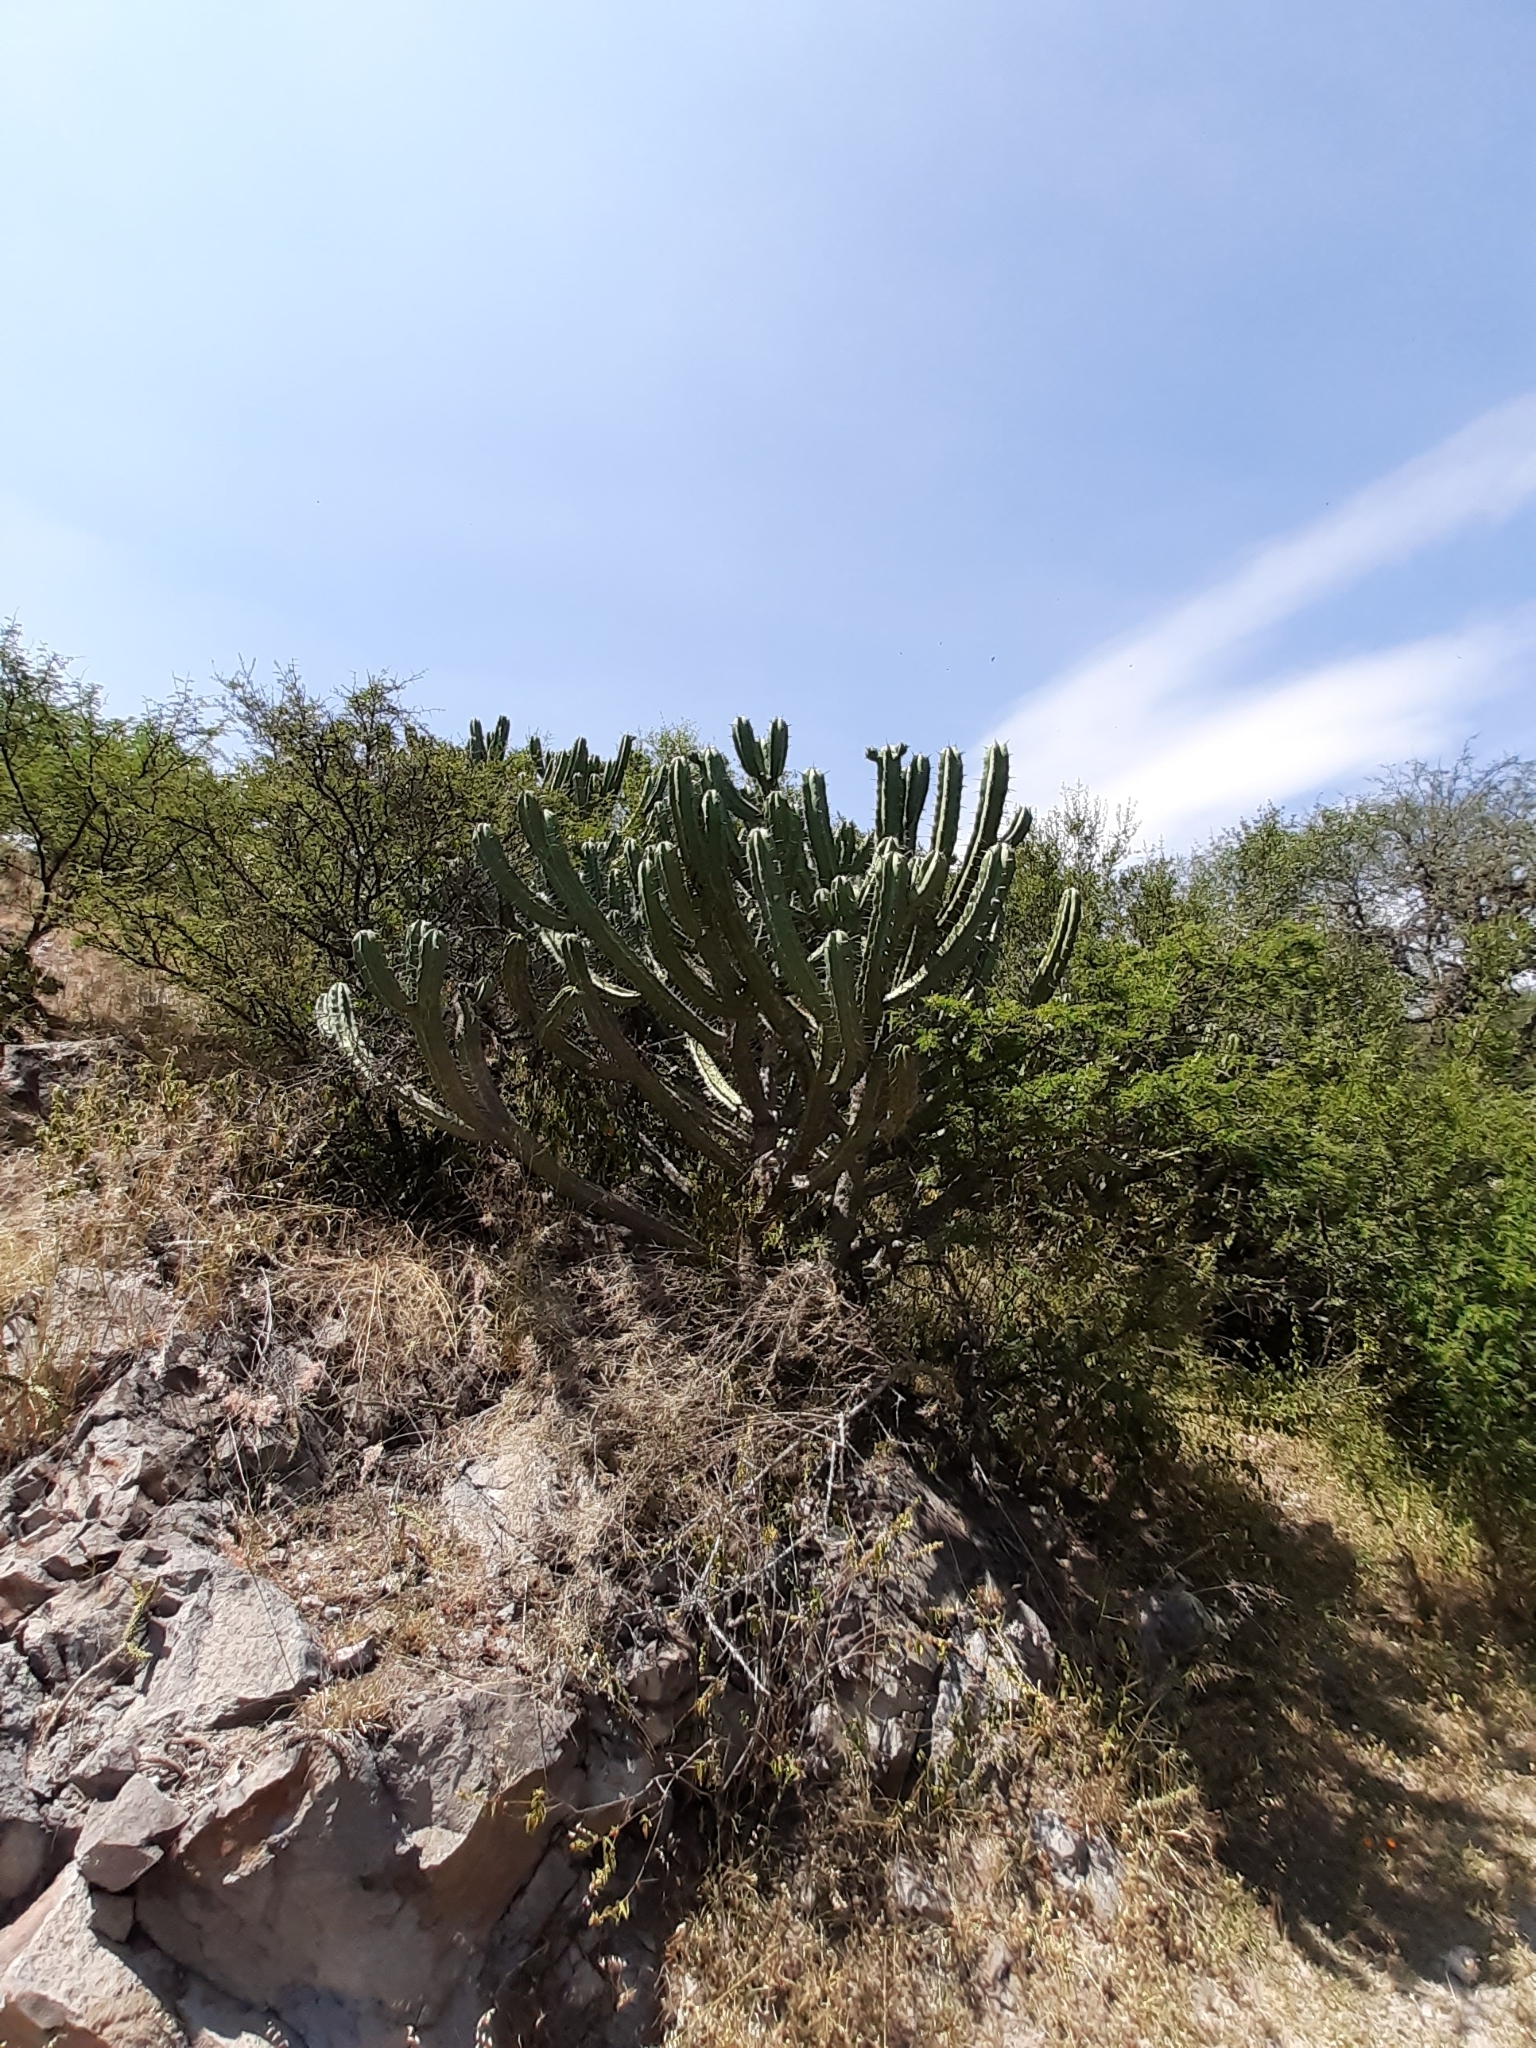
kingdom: Plantae
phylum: Tracheophyta
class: Magnoliopsida
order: Caryophyllales
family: Cactaceae
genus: Myrtillocactus
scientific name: Myrtillocactus geometrizans
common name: Bilberry cactus
